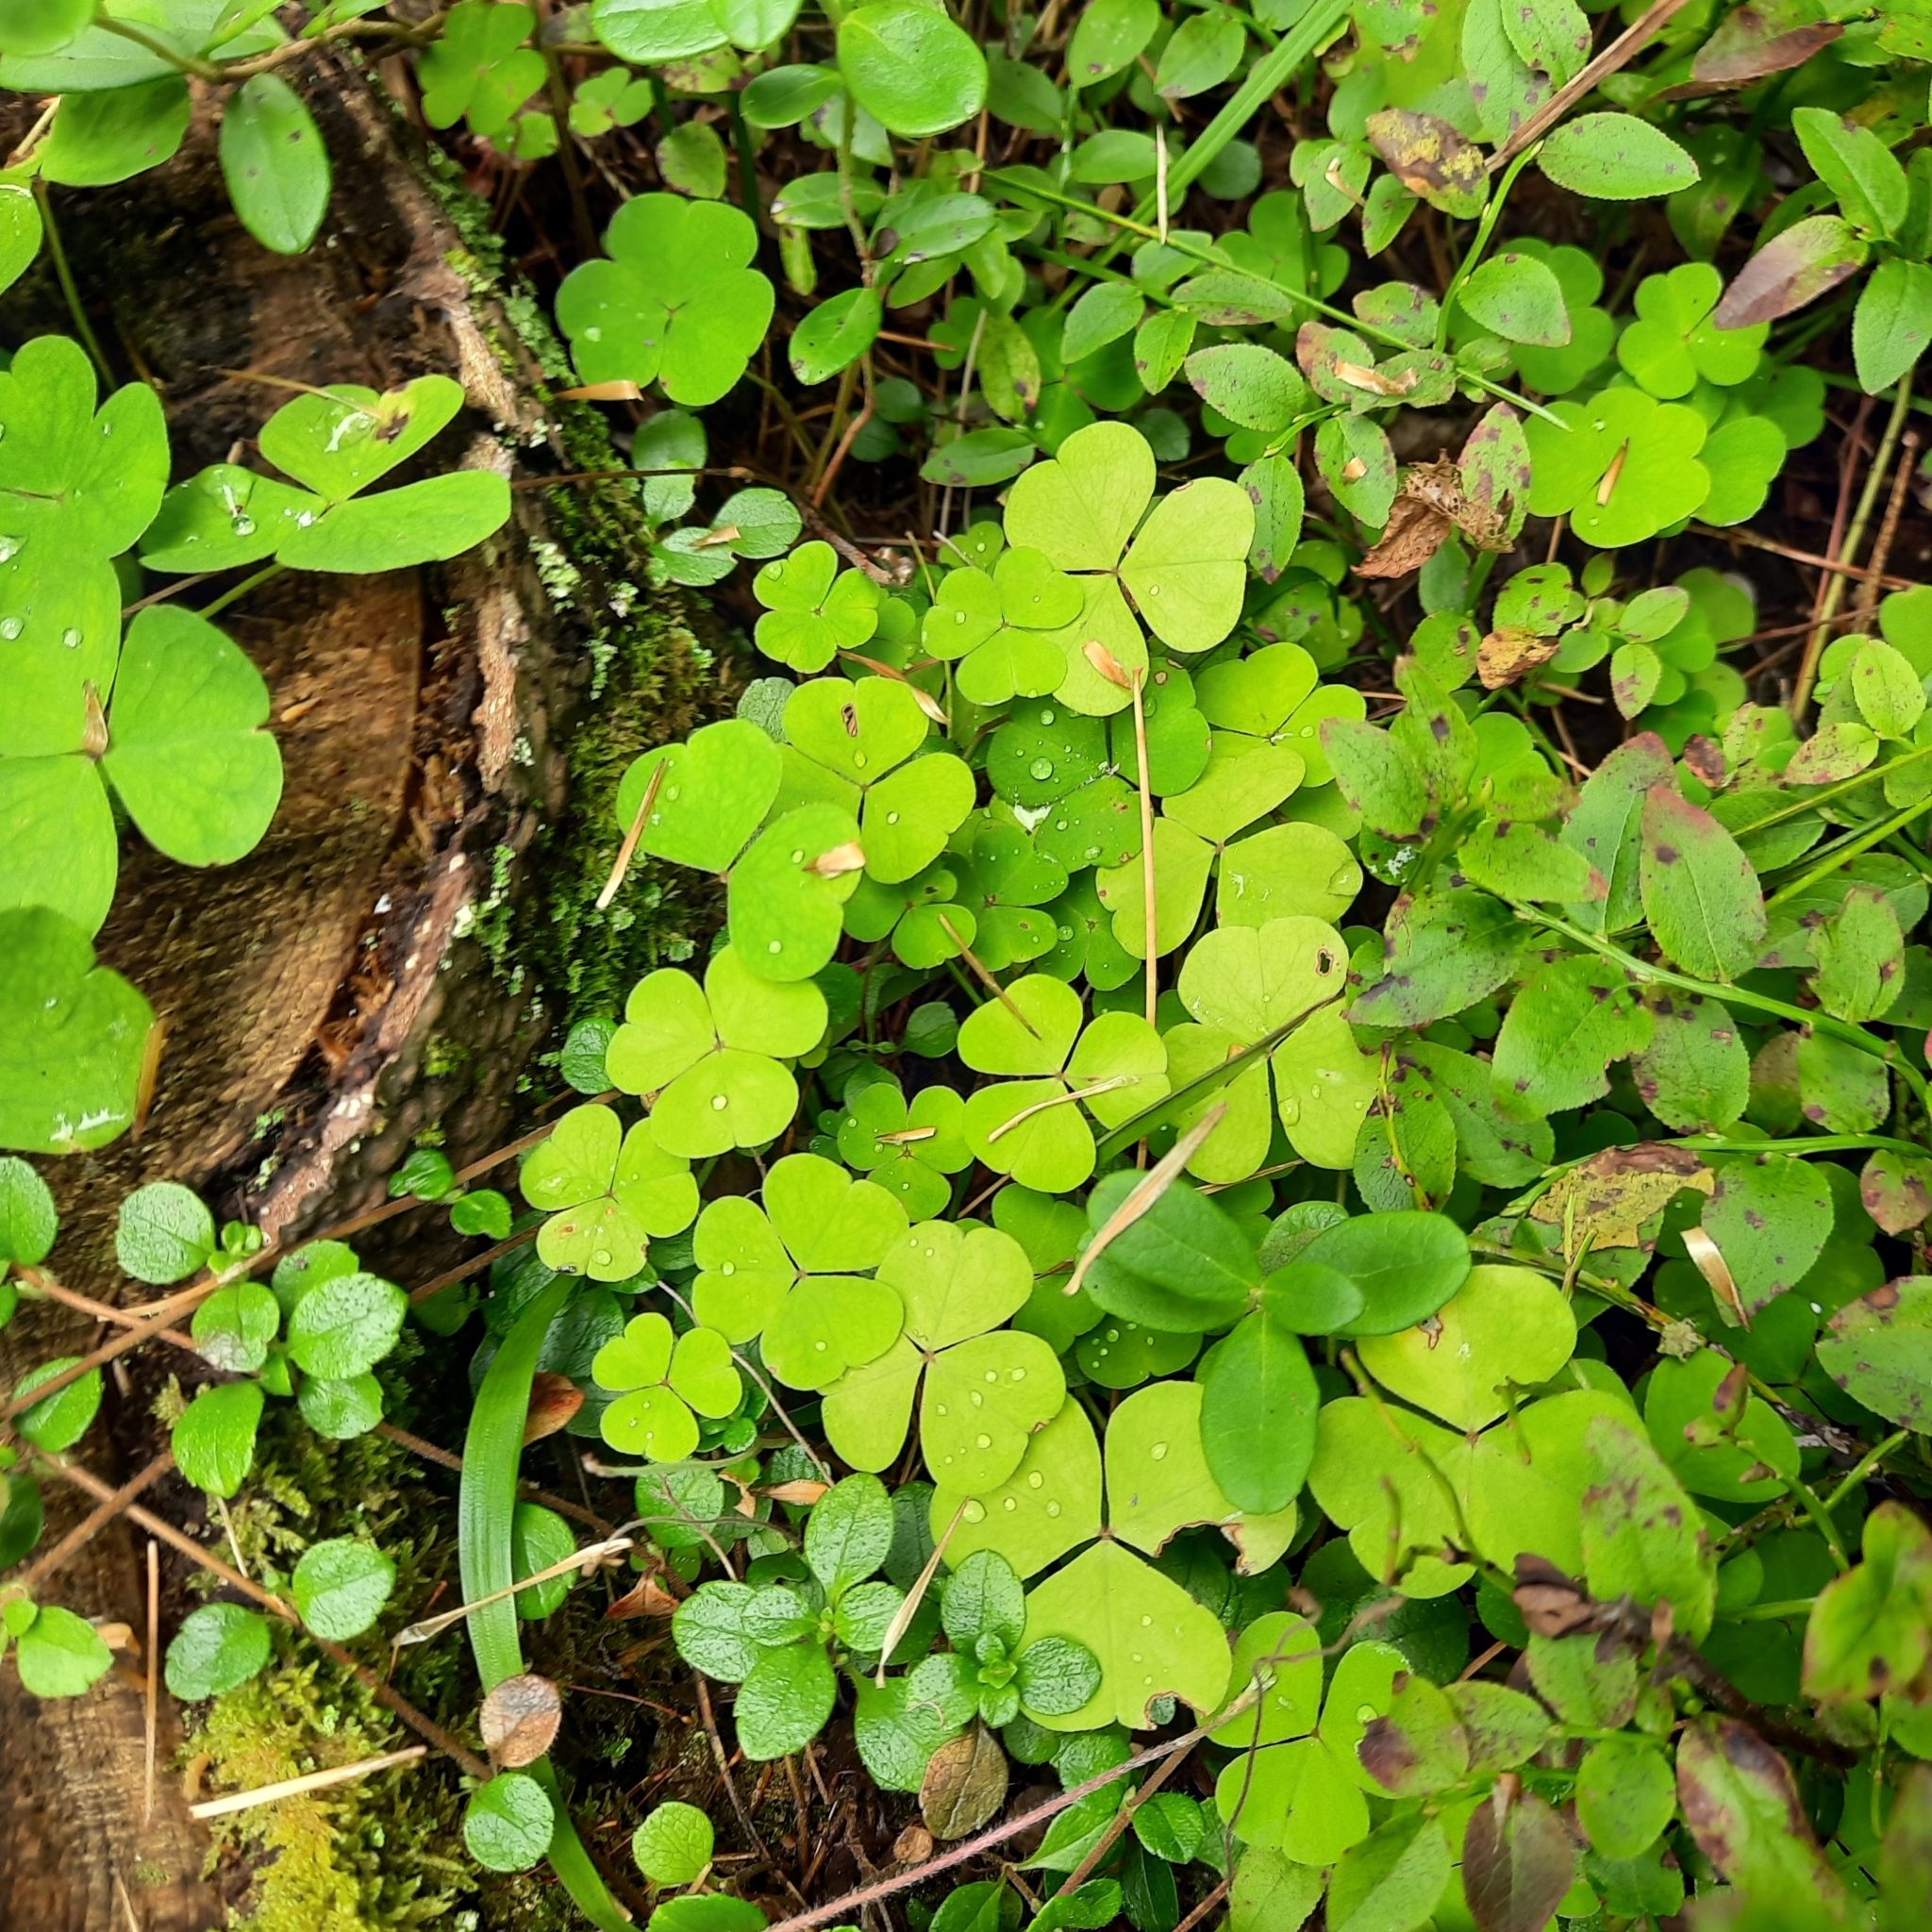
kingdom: Plantae
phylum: Tracheophyta
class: Magnoliopsida
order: Oxalidales
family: Oxalidaceae
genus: Oxalis
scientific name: Oxalis acetosella
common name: Wood-sorrel
